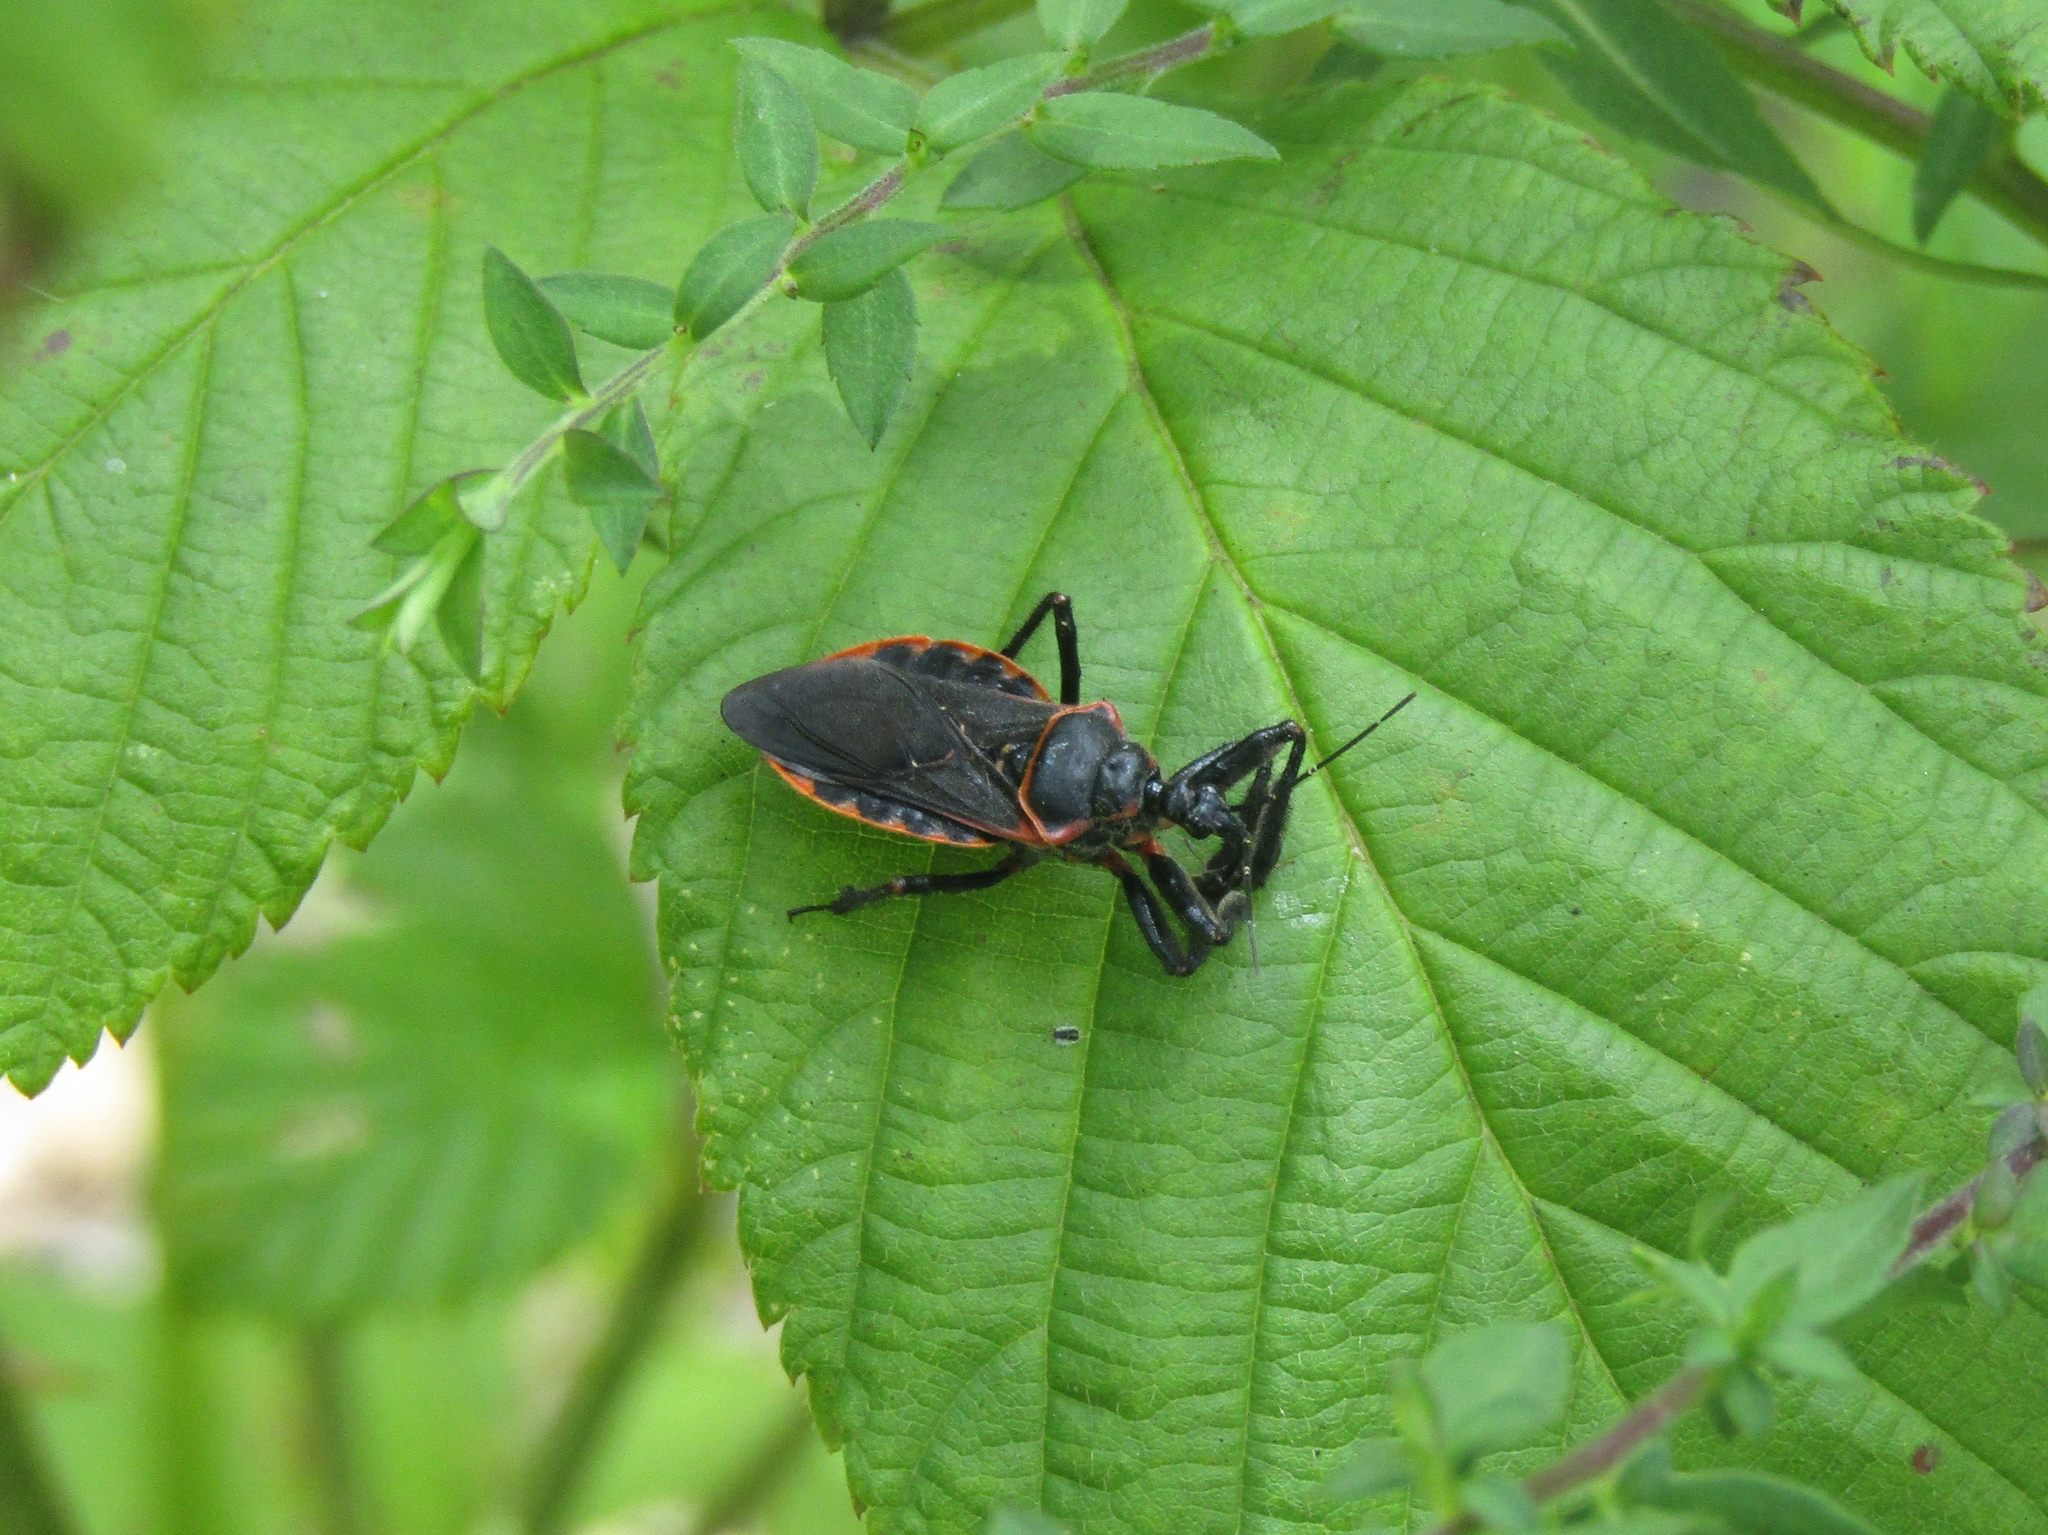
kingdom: Animalia
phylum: Arthropoda
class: Insecta
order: Hemiptera
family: Reduviidae
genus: Apiomerus
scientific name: Apiomerus crassipes
